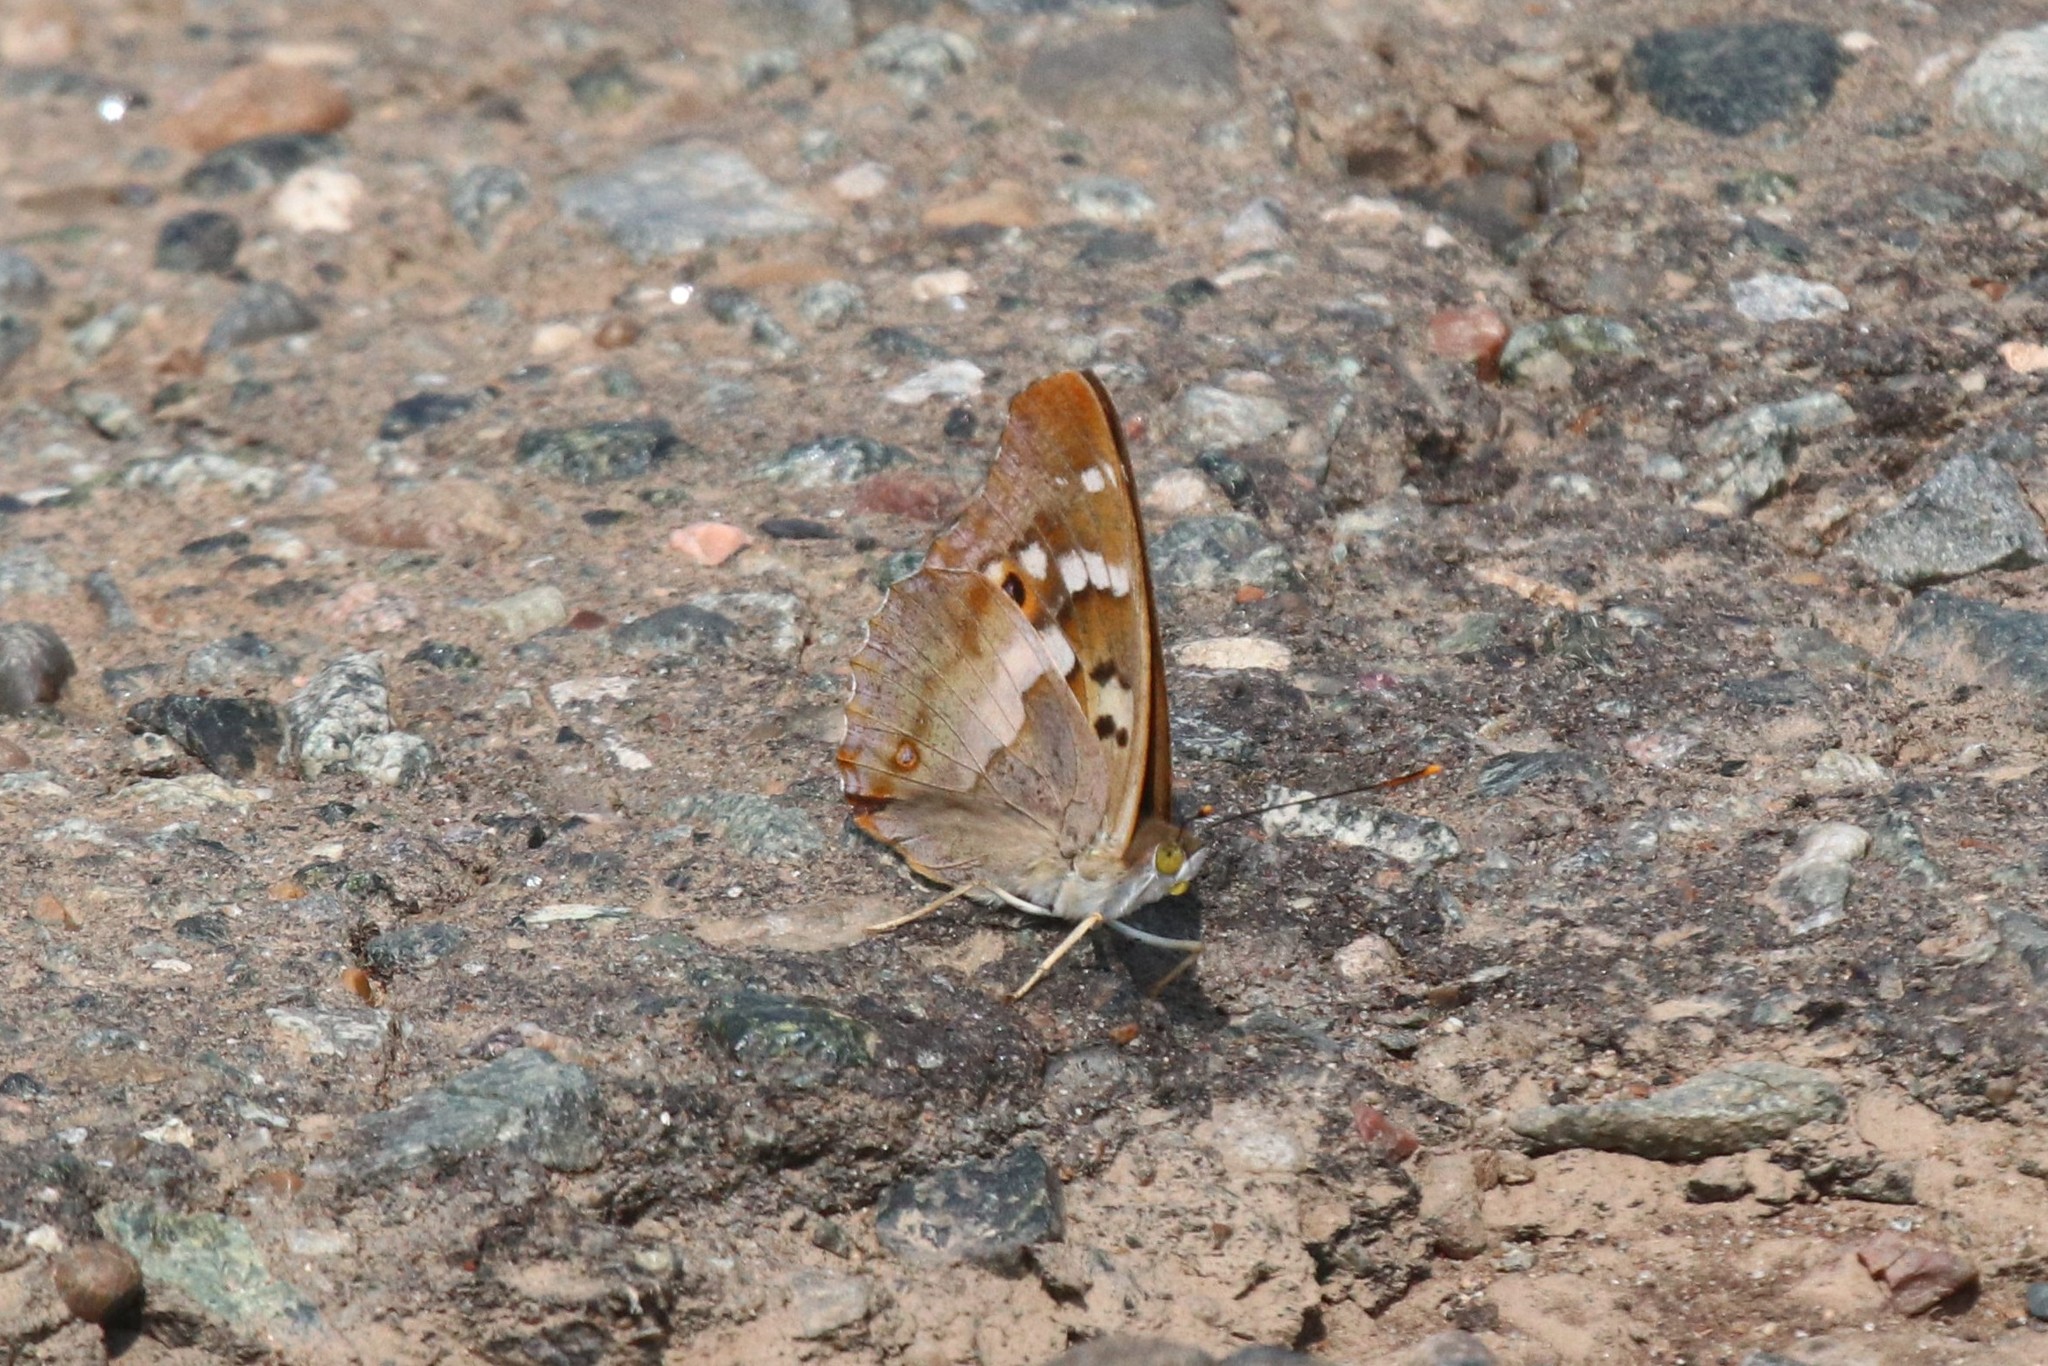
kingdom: Animalia
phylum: Arthropoda
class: Insecta
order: Lepidoptera
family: Nymphalidae
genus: Apatura
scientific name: Apatura ilia
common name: Lesser purple emperor
